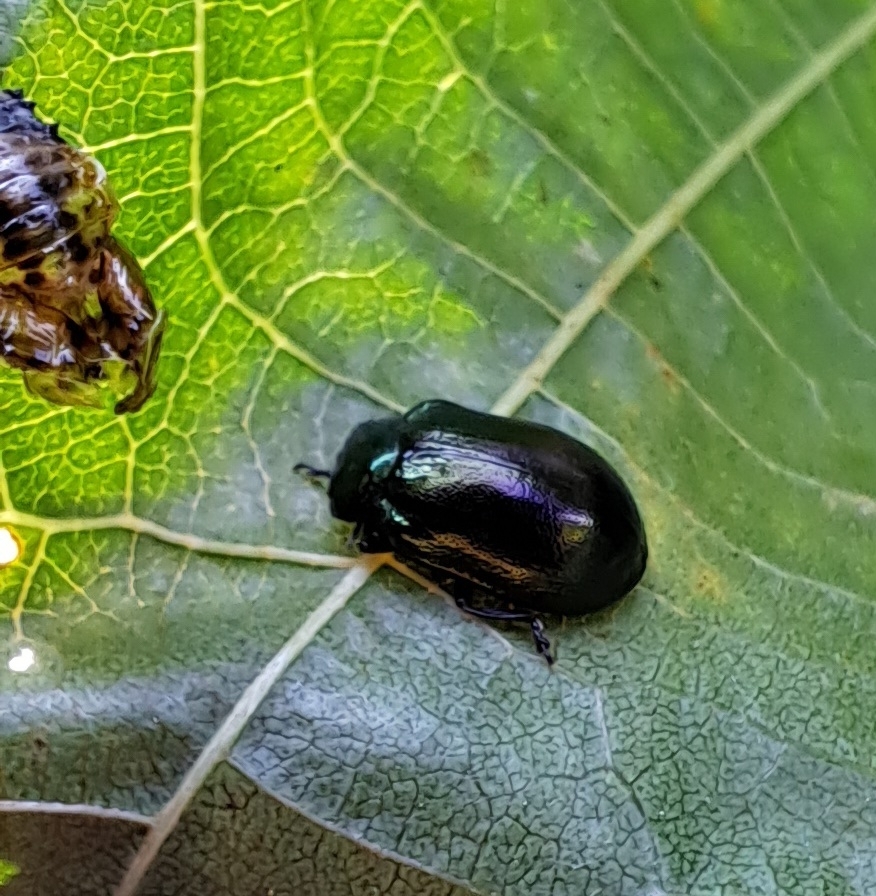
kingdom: Animalia
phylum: Arthropoda
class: Insecta
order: Coleoptera
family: Chrysomelidae
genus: Plagiosterna
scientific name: Plagiosterna aenea
